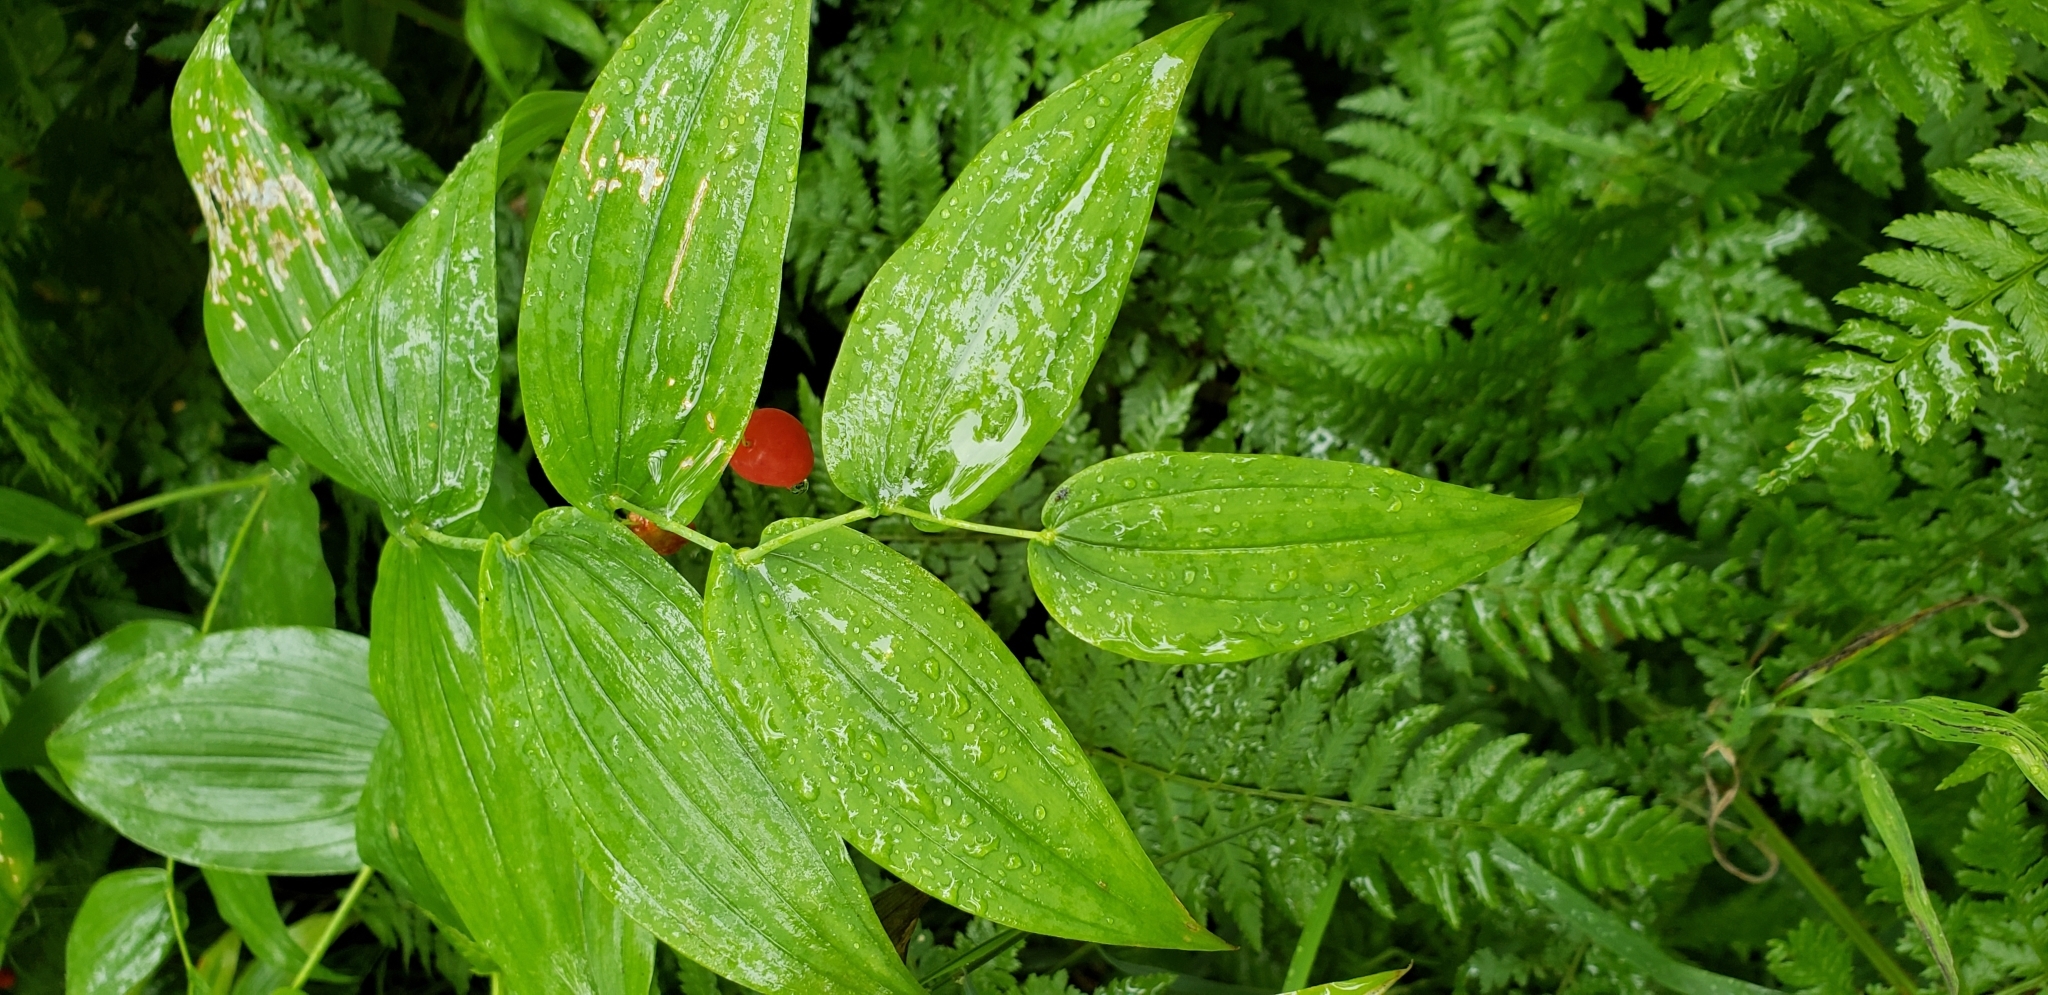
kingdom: Plantae
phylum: Tracheophyta
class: Liliopsida
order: Liliales
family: Liliaceae
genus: Streptopus
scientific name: Streptopus amplexifolius
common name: Clasp twisted stalk
